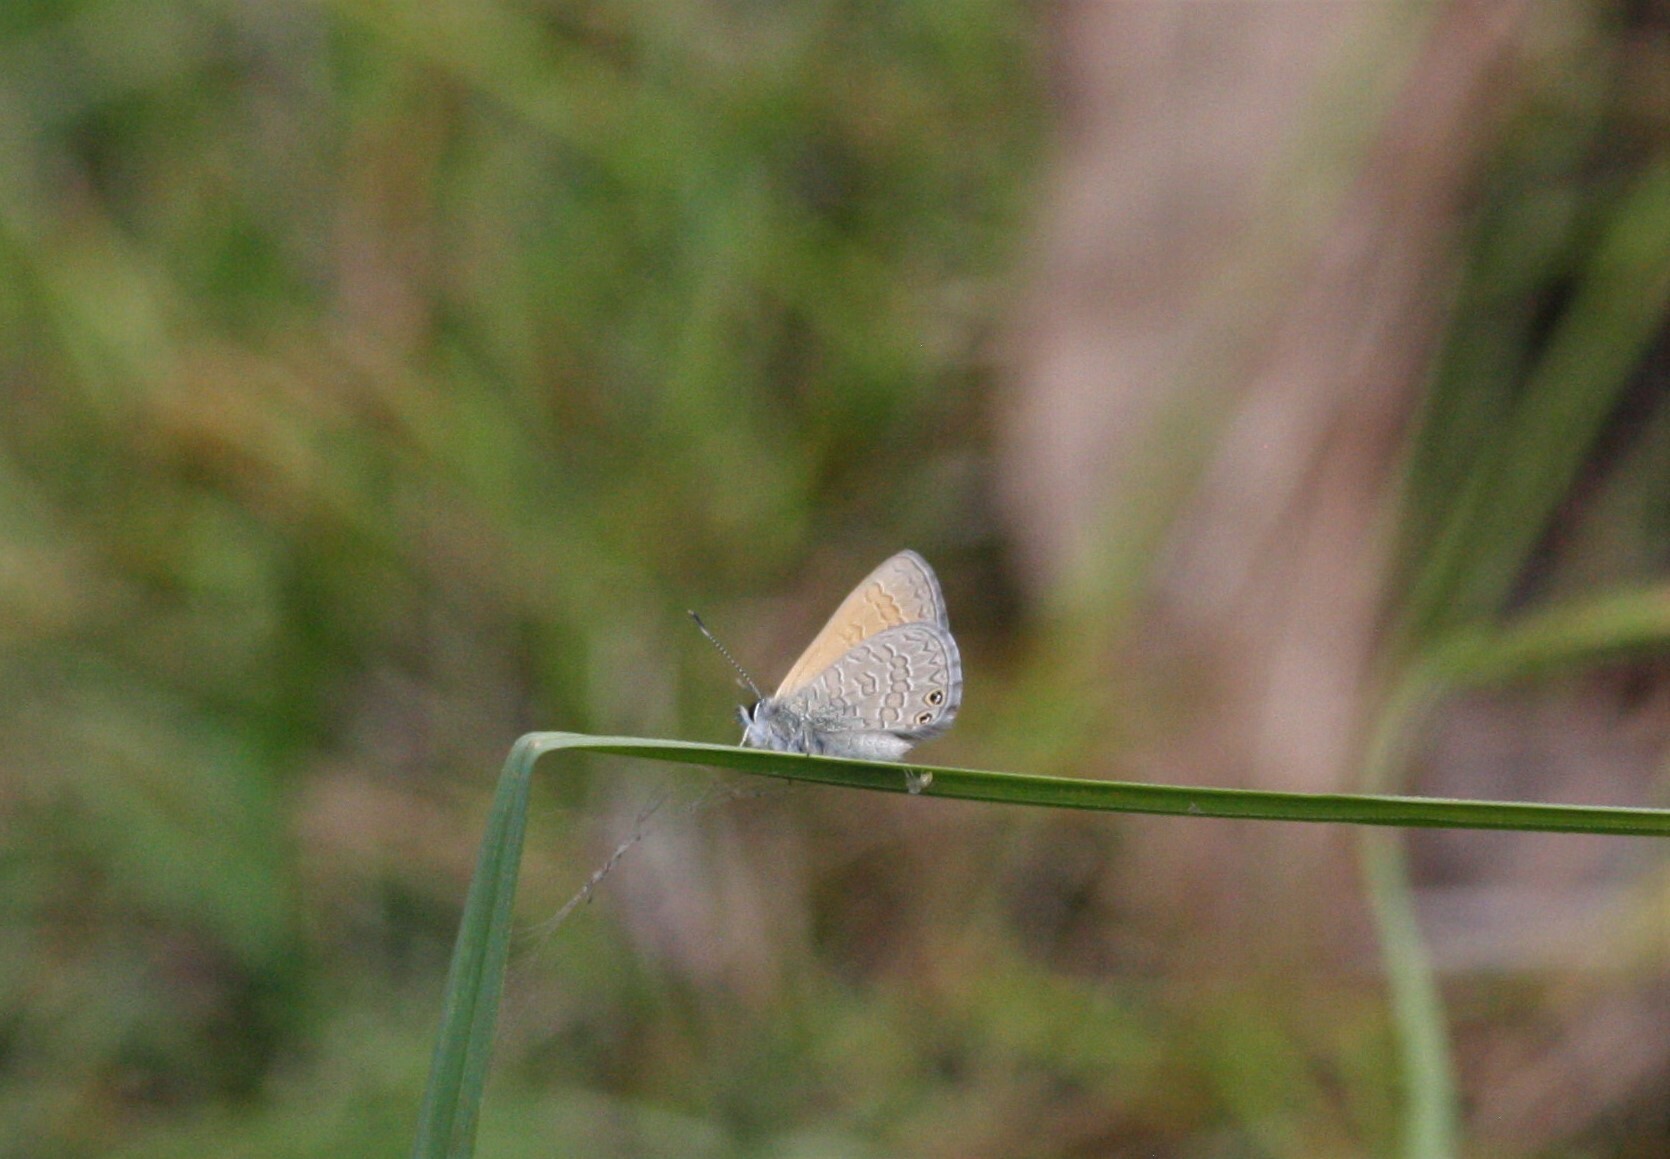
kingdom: Animalia
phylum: Arthropoda
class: Insecta
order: Lepidoptera
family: Lycaenidae
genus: Nacaduba
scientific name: Nacaduba biocellata
